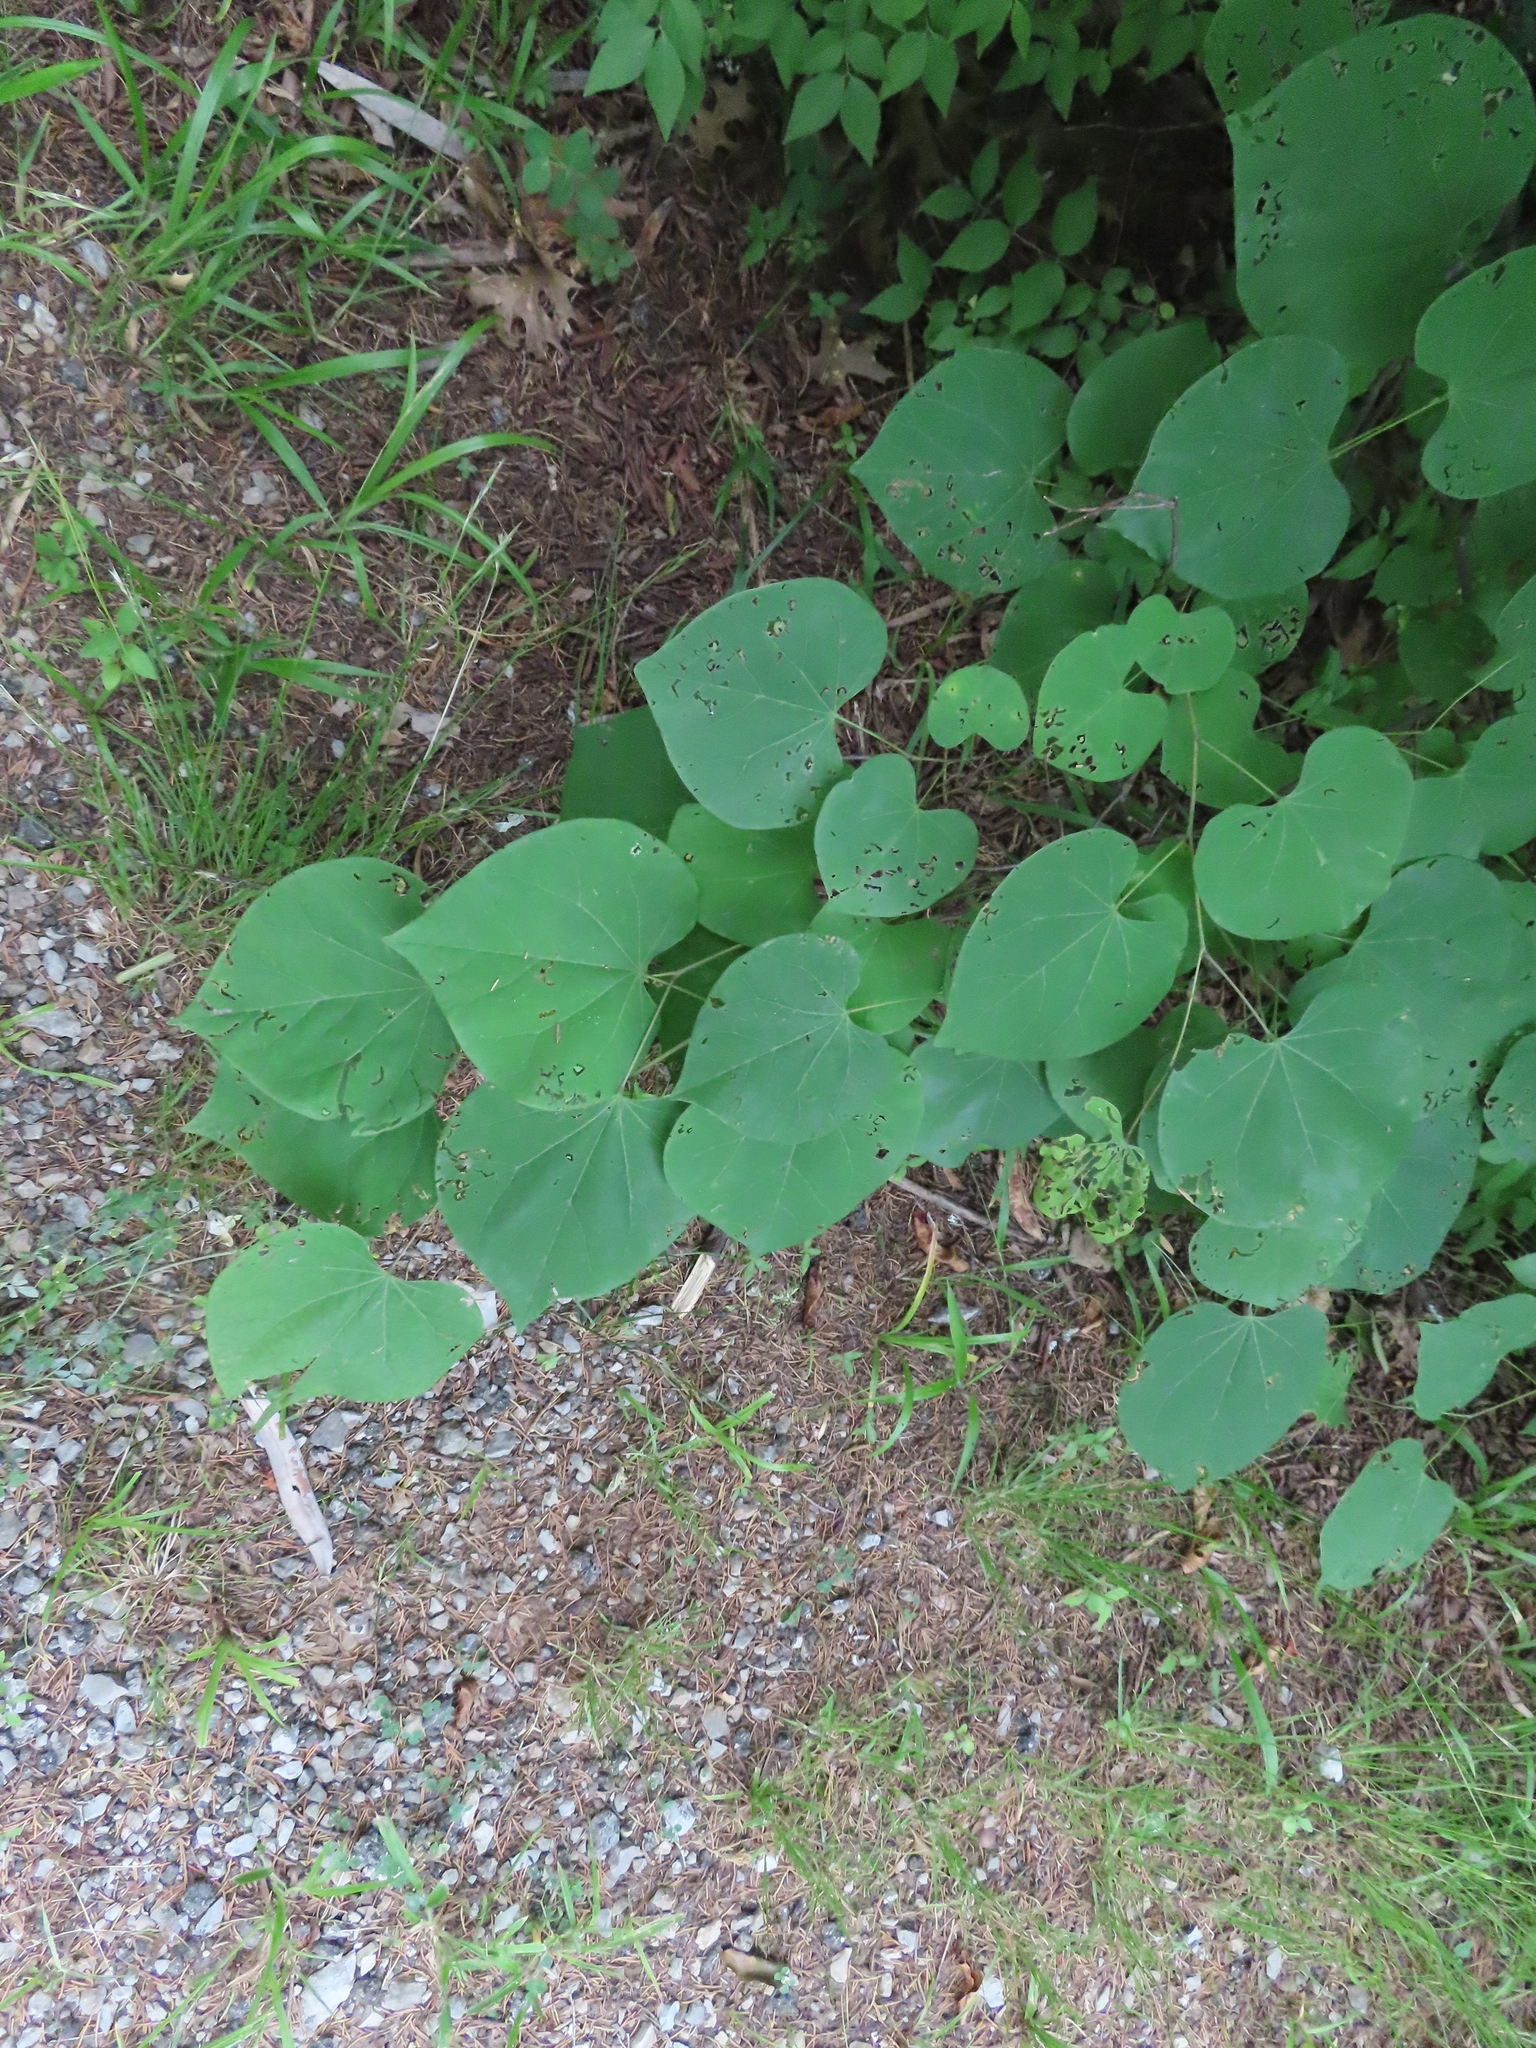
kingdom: Plantae
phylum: Tracheophyta
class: Magnoliopsida
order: Fabales
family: Fabaceae
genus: Cercis
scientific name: Cercis canadensis
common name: Eastern redbud
